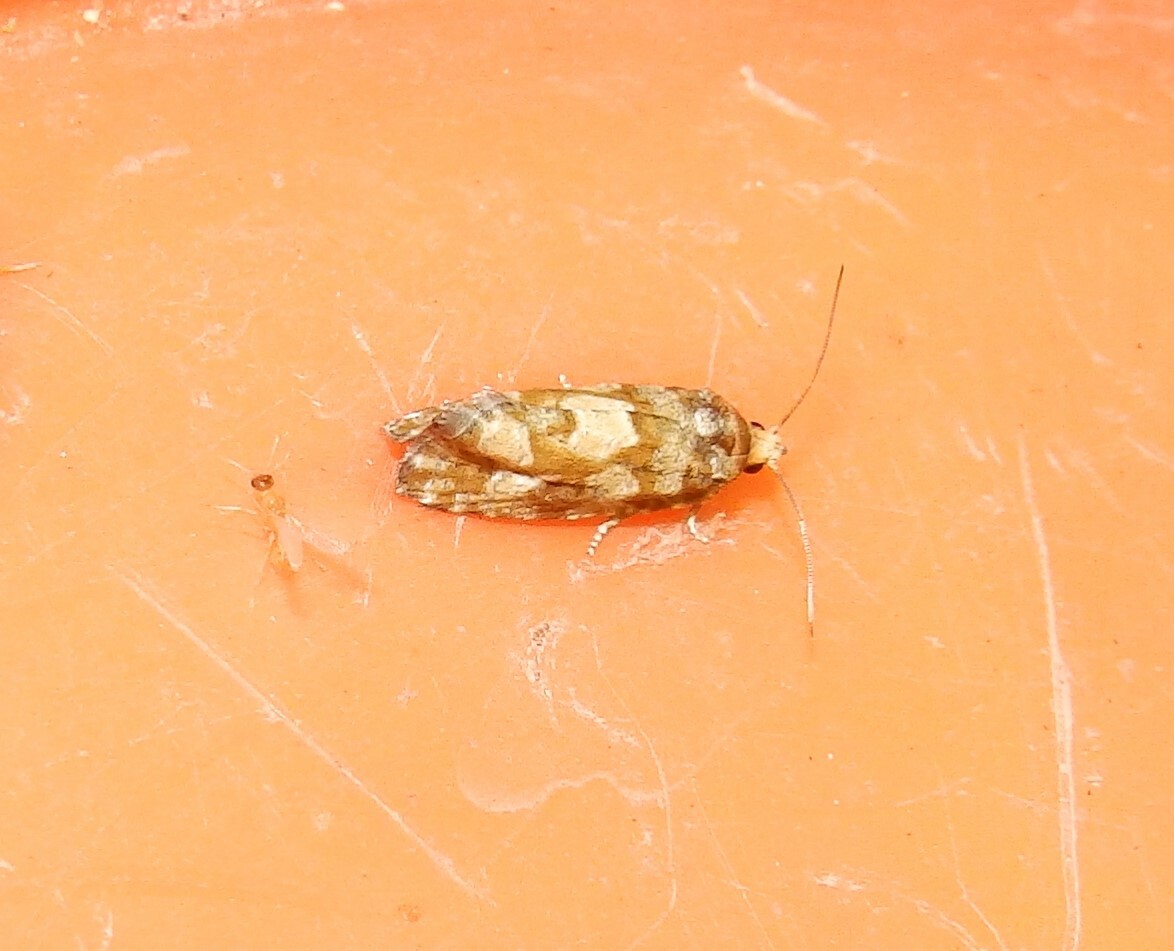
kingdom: Animalia
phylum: Arthropoda
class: Insecta
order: Lepidoptera
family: Tortricidae
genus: Eucopina
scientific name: Eucopina tocullionana
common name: White pinecone borer moth
